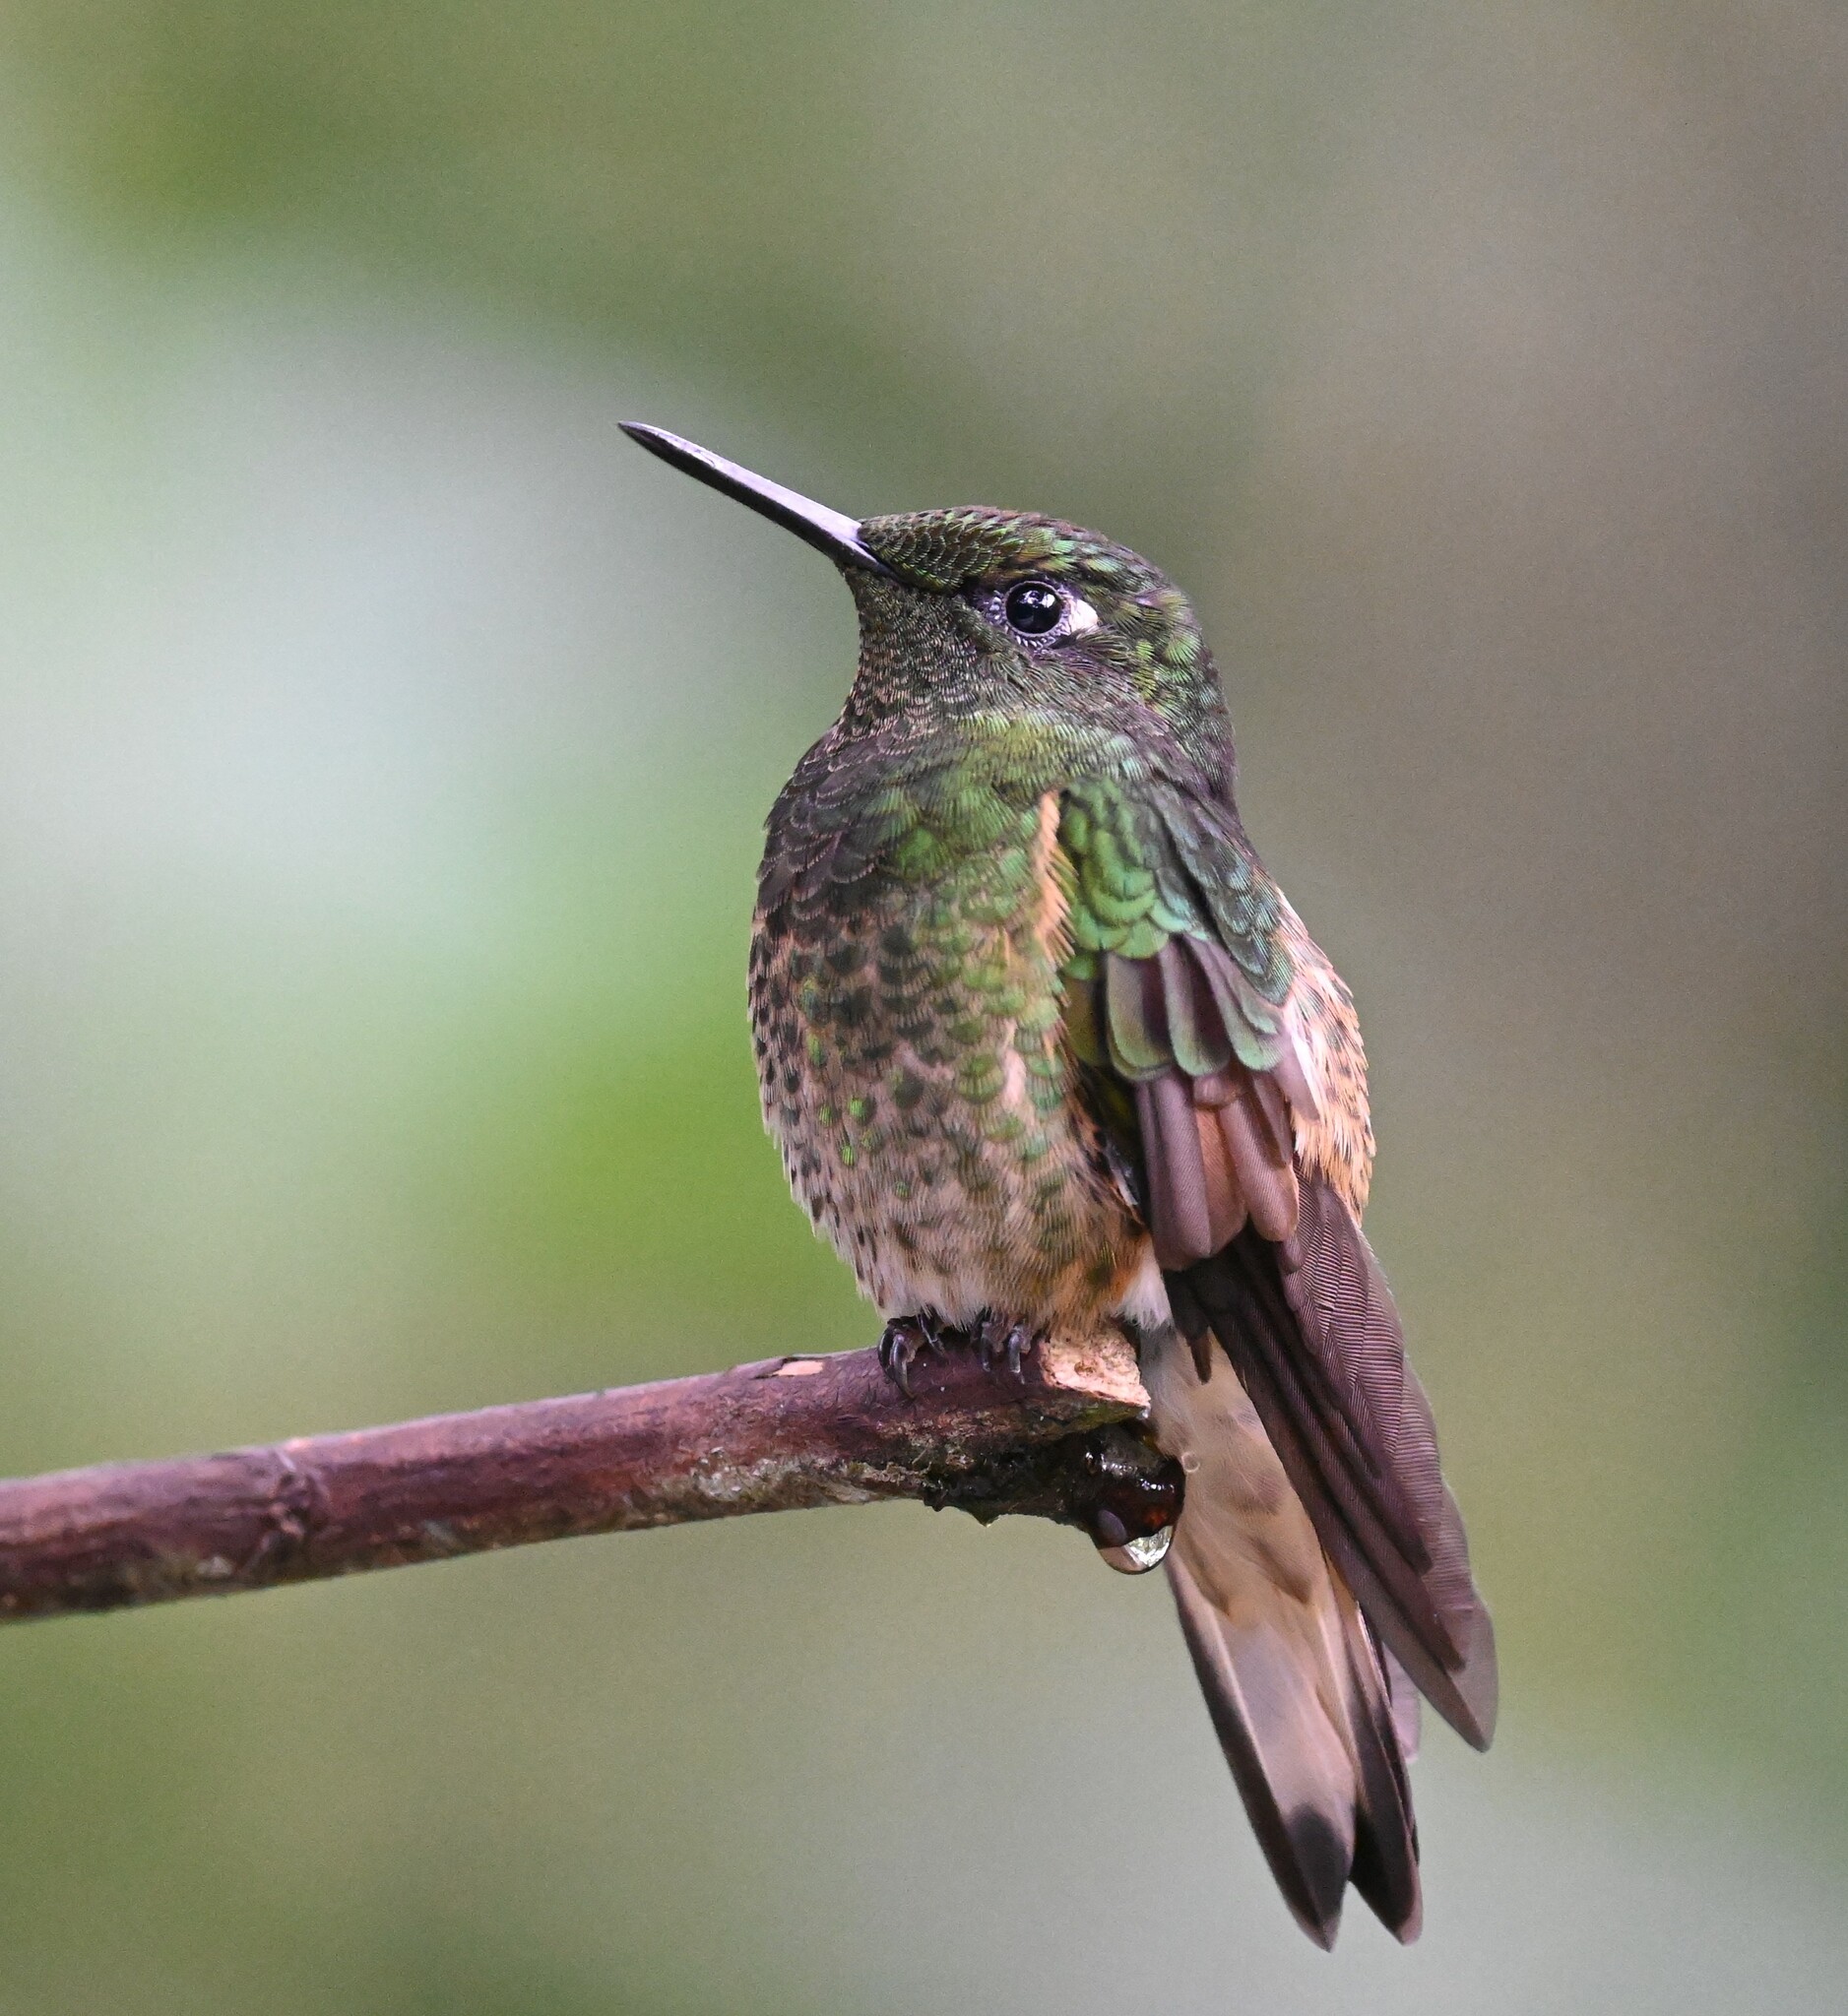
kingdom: Animalia
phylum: Chordata
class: Aves
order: Apodiformes
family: Trochilidae
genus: Boissonneaua
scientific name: Boissonneaua flavescens
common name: Buff-tailed coronet
